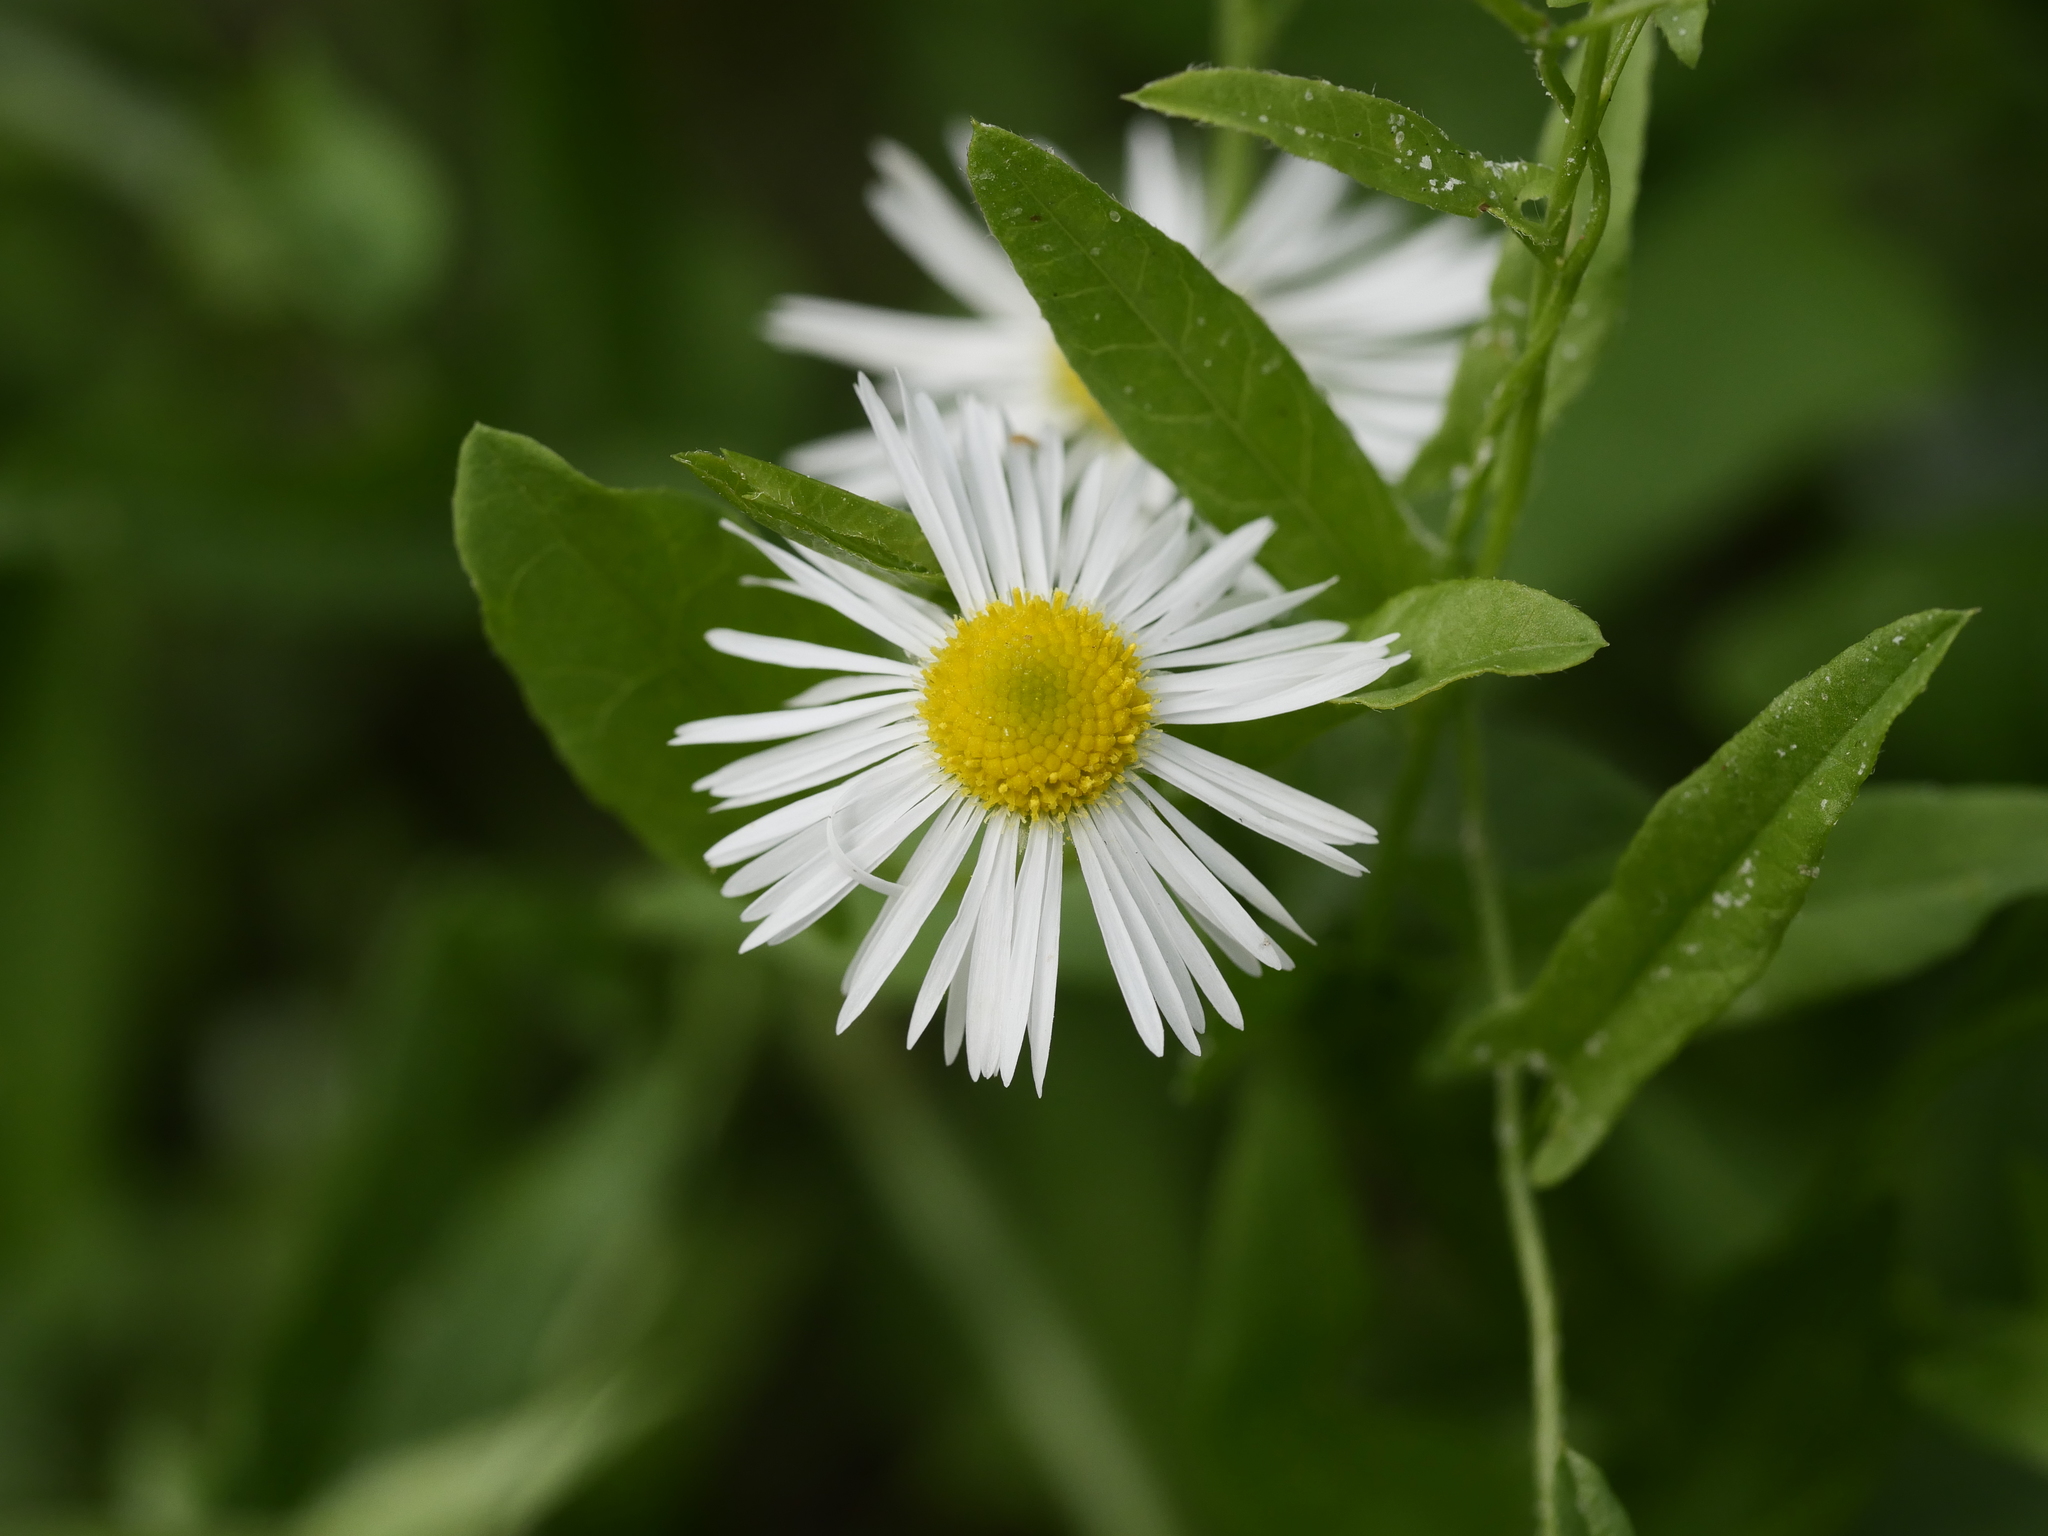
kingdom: Plantae
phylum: Tracheophyta
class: Magnoliopsida
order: Asterales
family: Asteraceae
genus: Erigeron
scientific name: Erigeron annuus
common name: Tall fleabane
